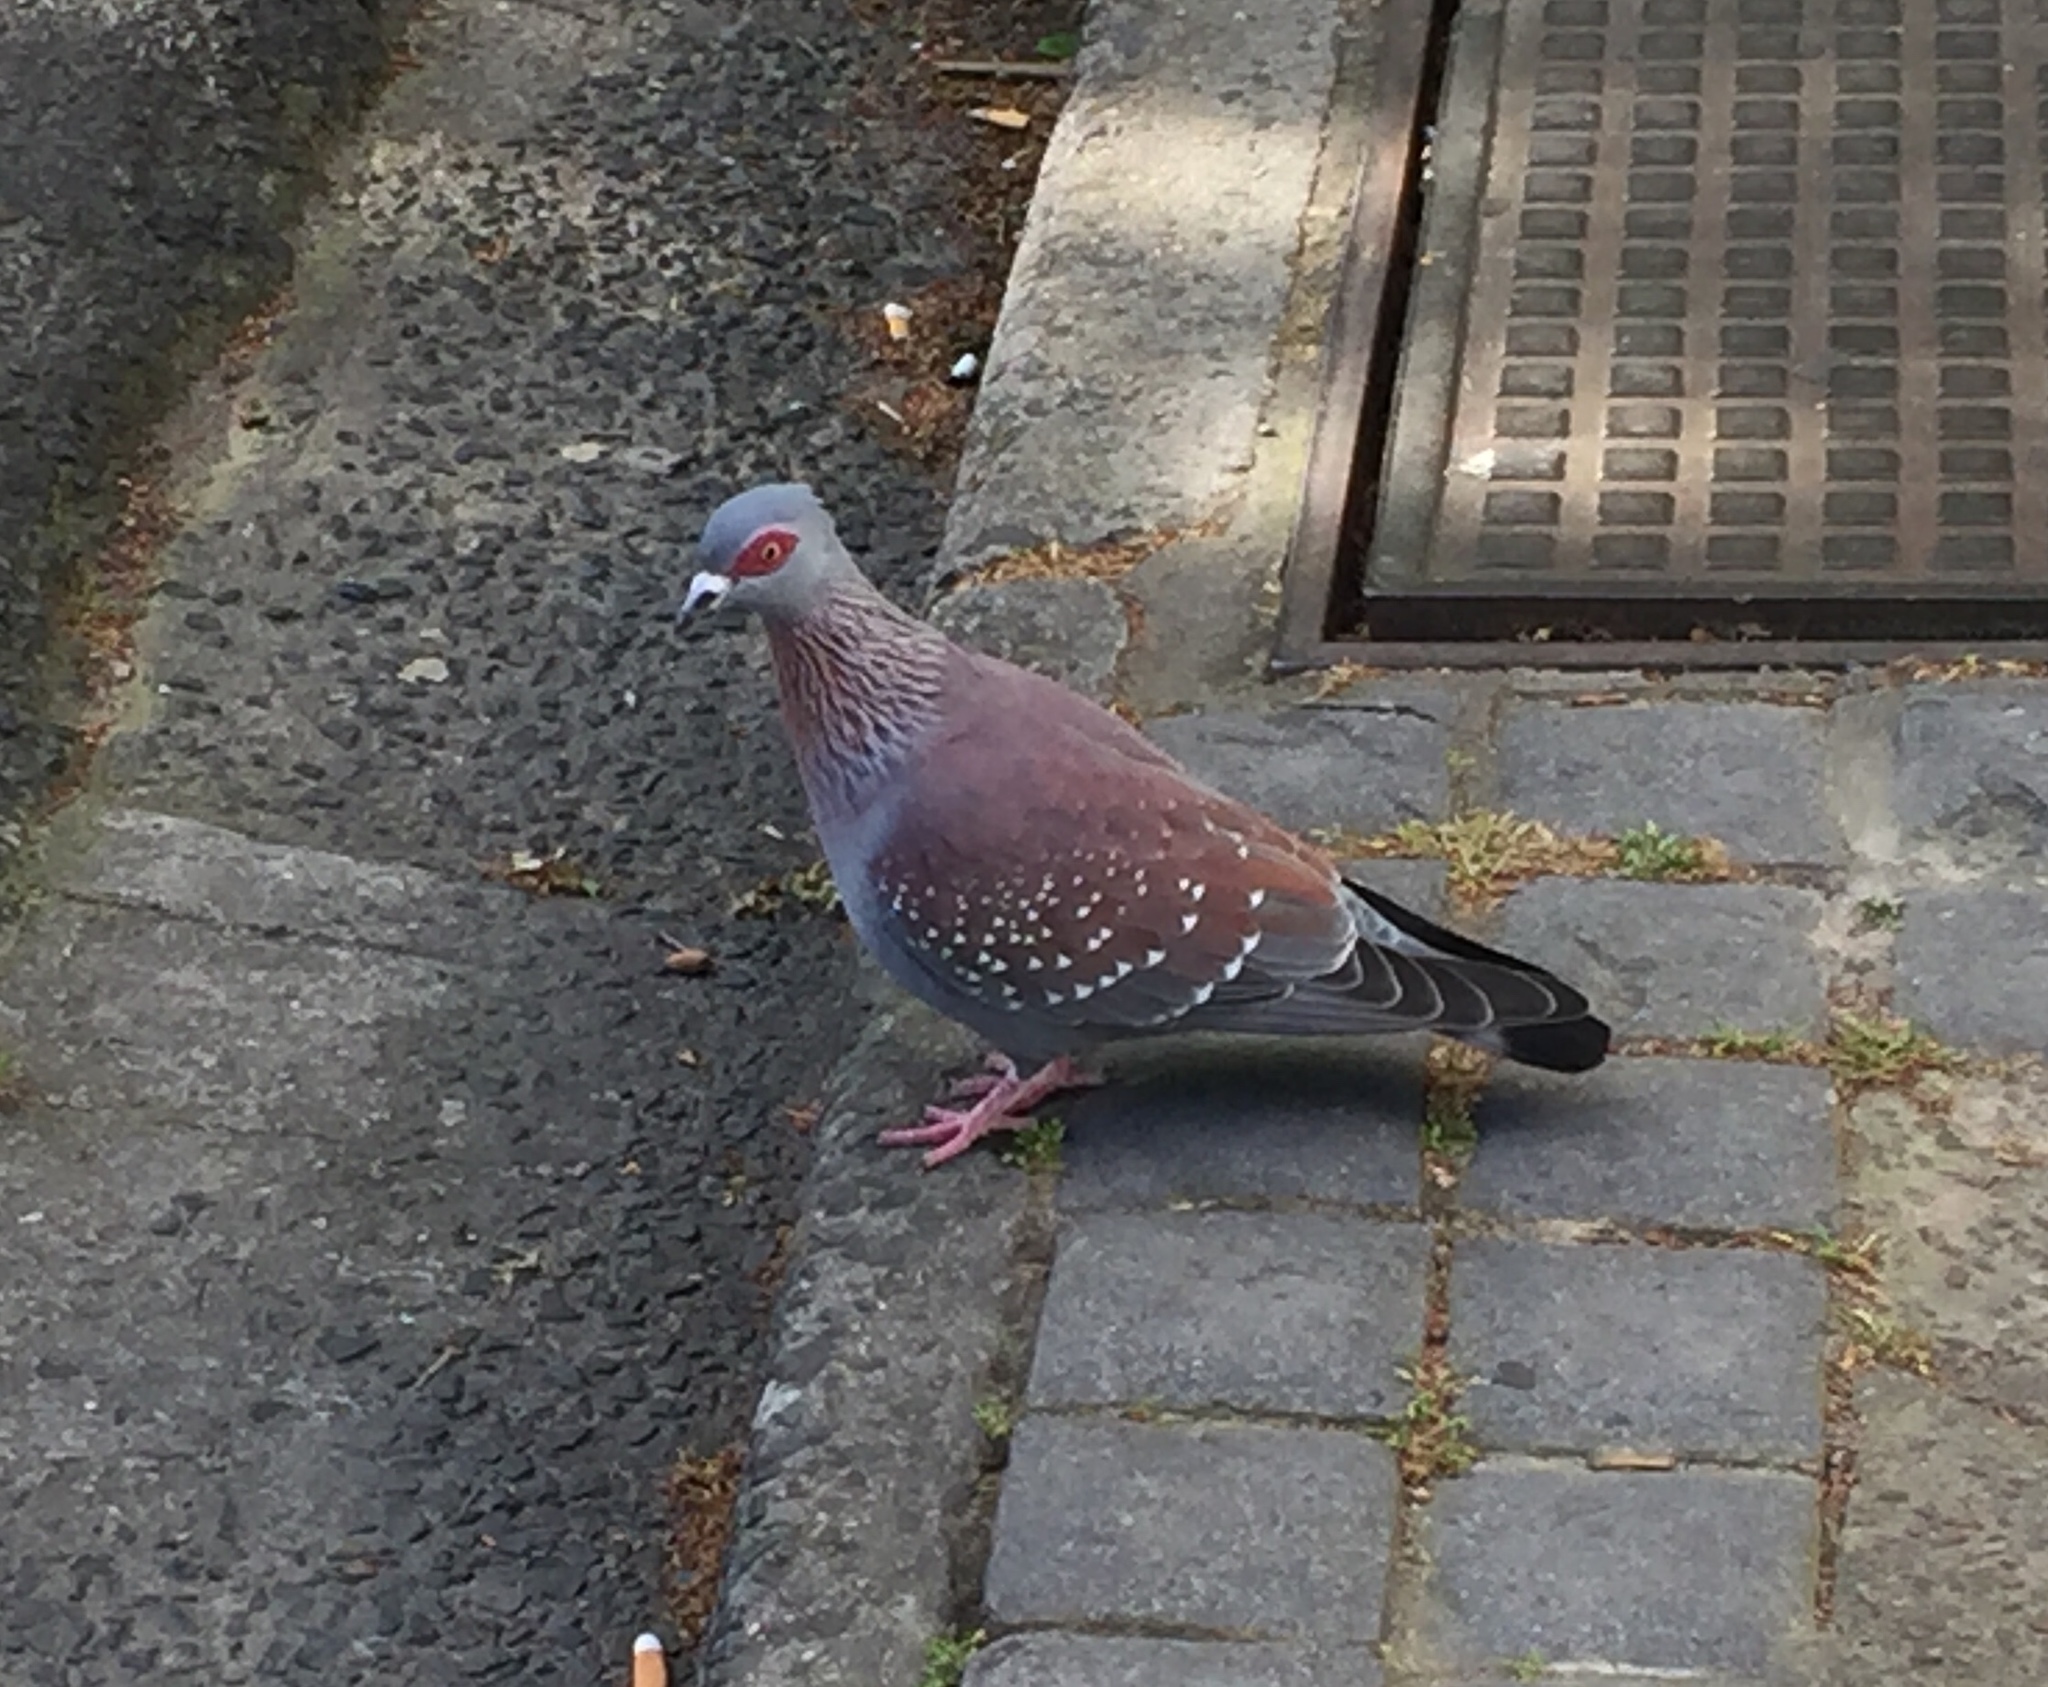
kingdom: Animalia
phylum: Chordata
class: Aves
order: Columbiformes
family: Columbidae
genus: Columba
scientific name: Columba guinea
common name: Speckled pigeon
